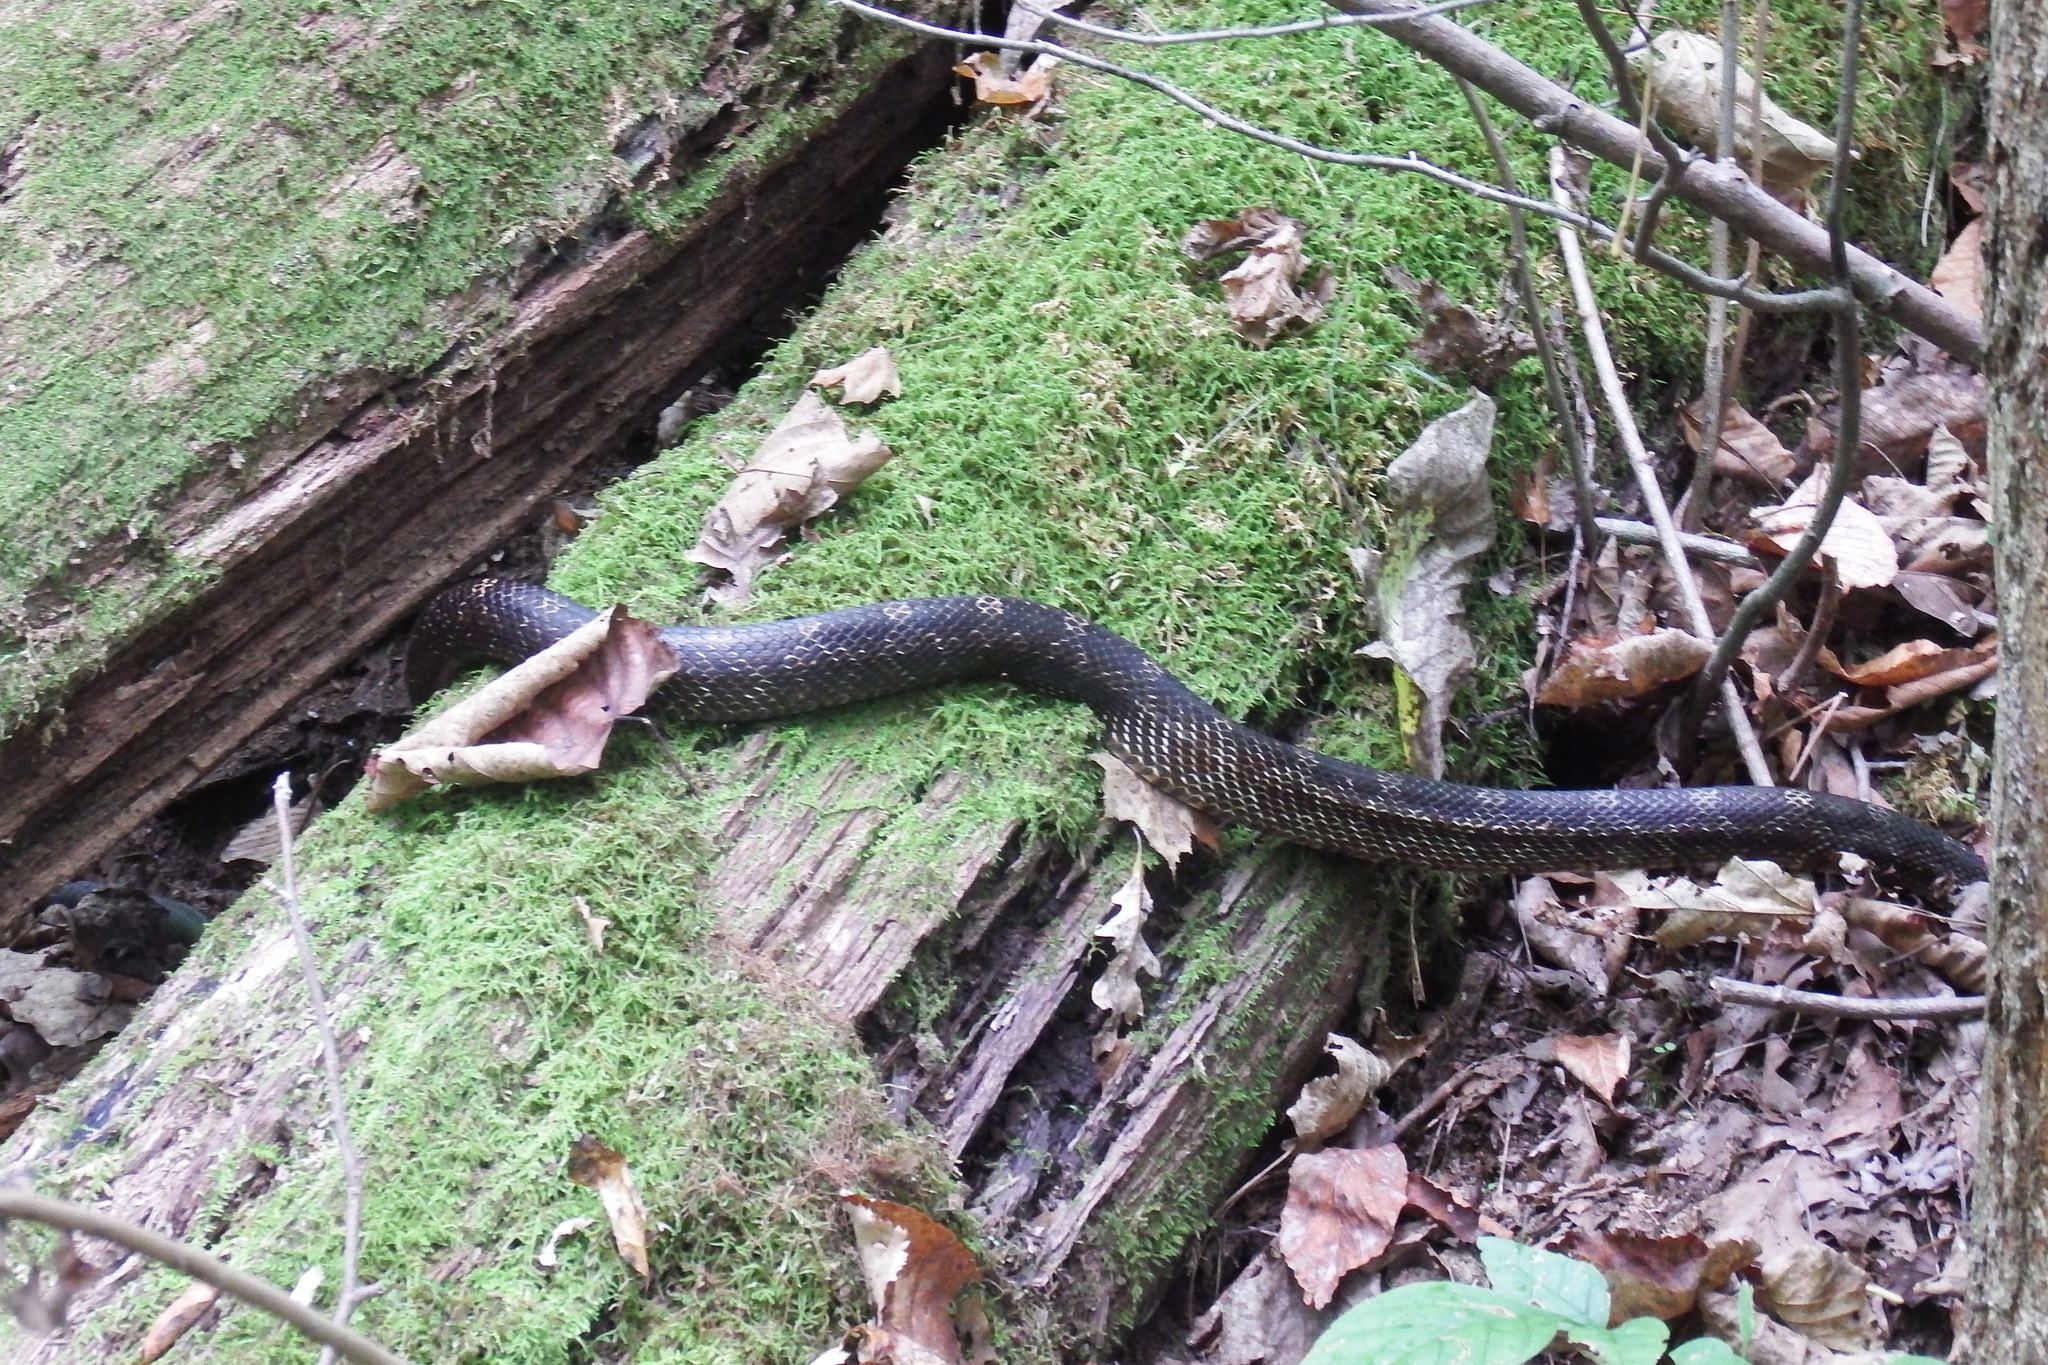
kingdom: Animalia
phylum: Chordata
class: Squamata
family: Colubridae
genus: Pantherophis
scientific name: Pantherophis spiloides
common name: Gray rat snake
